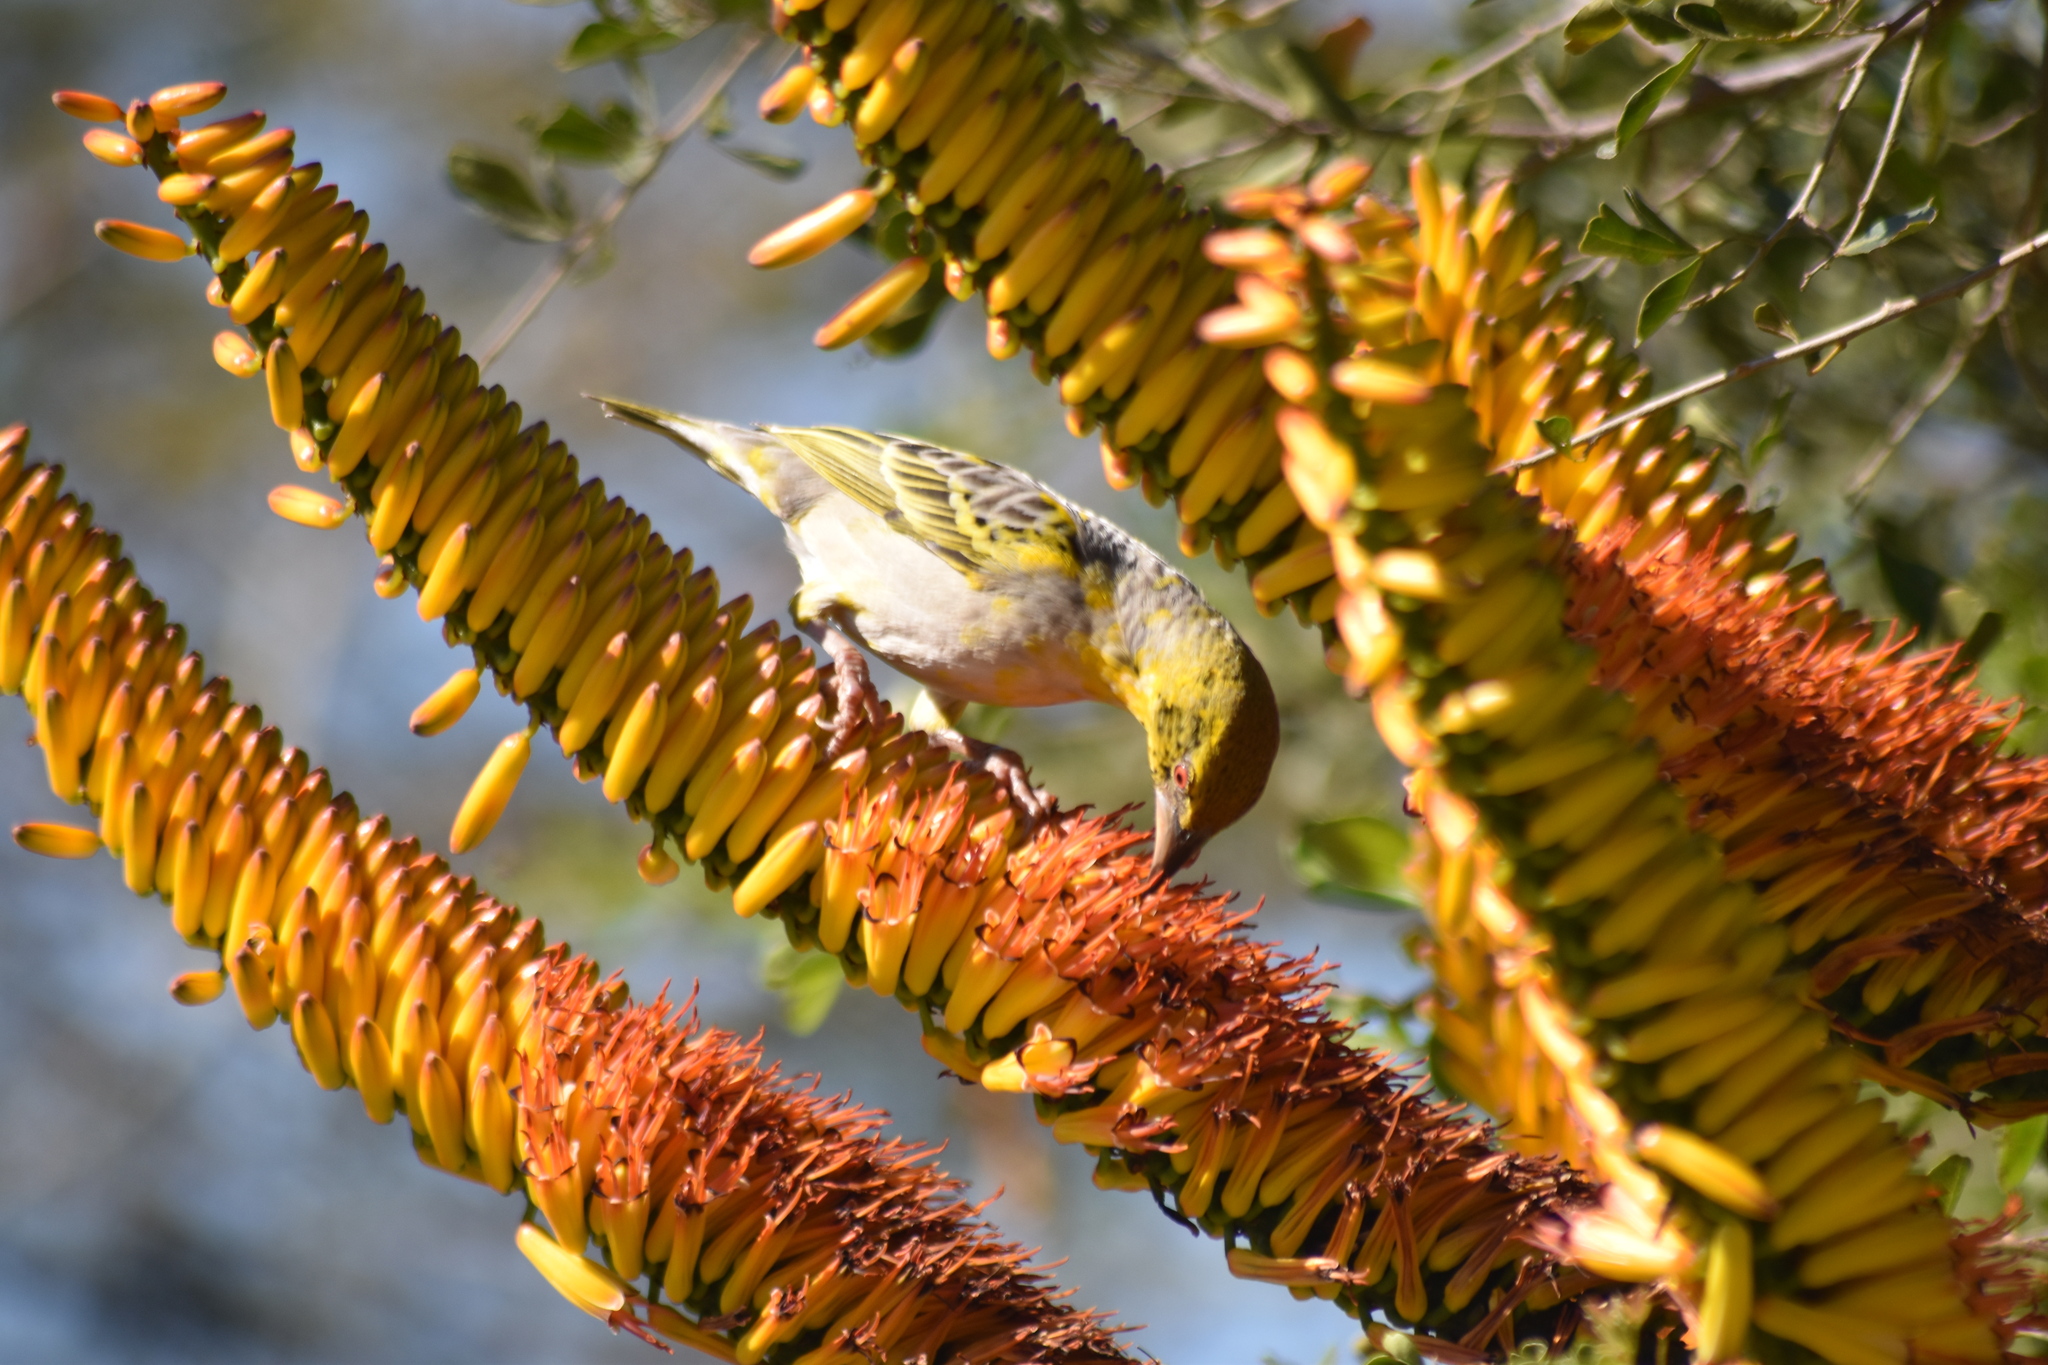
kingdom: Animalia
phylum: Chordata
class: Aves
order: Passeriformes
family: Ploceidae
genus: Ploceus
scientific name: Ploceus cucullatus
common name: Village weaver
